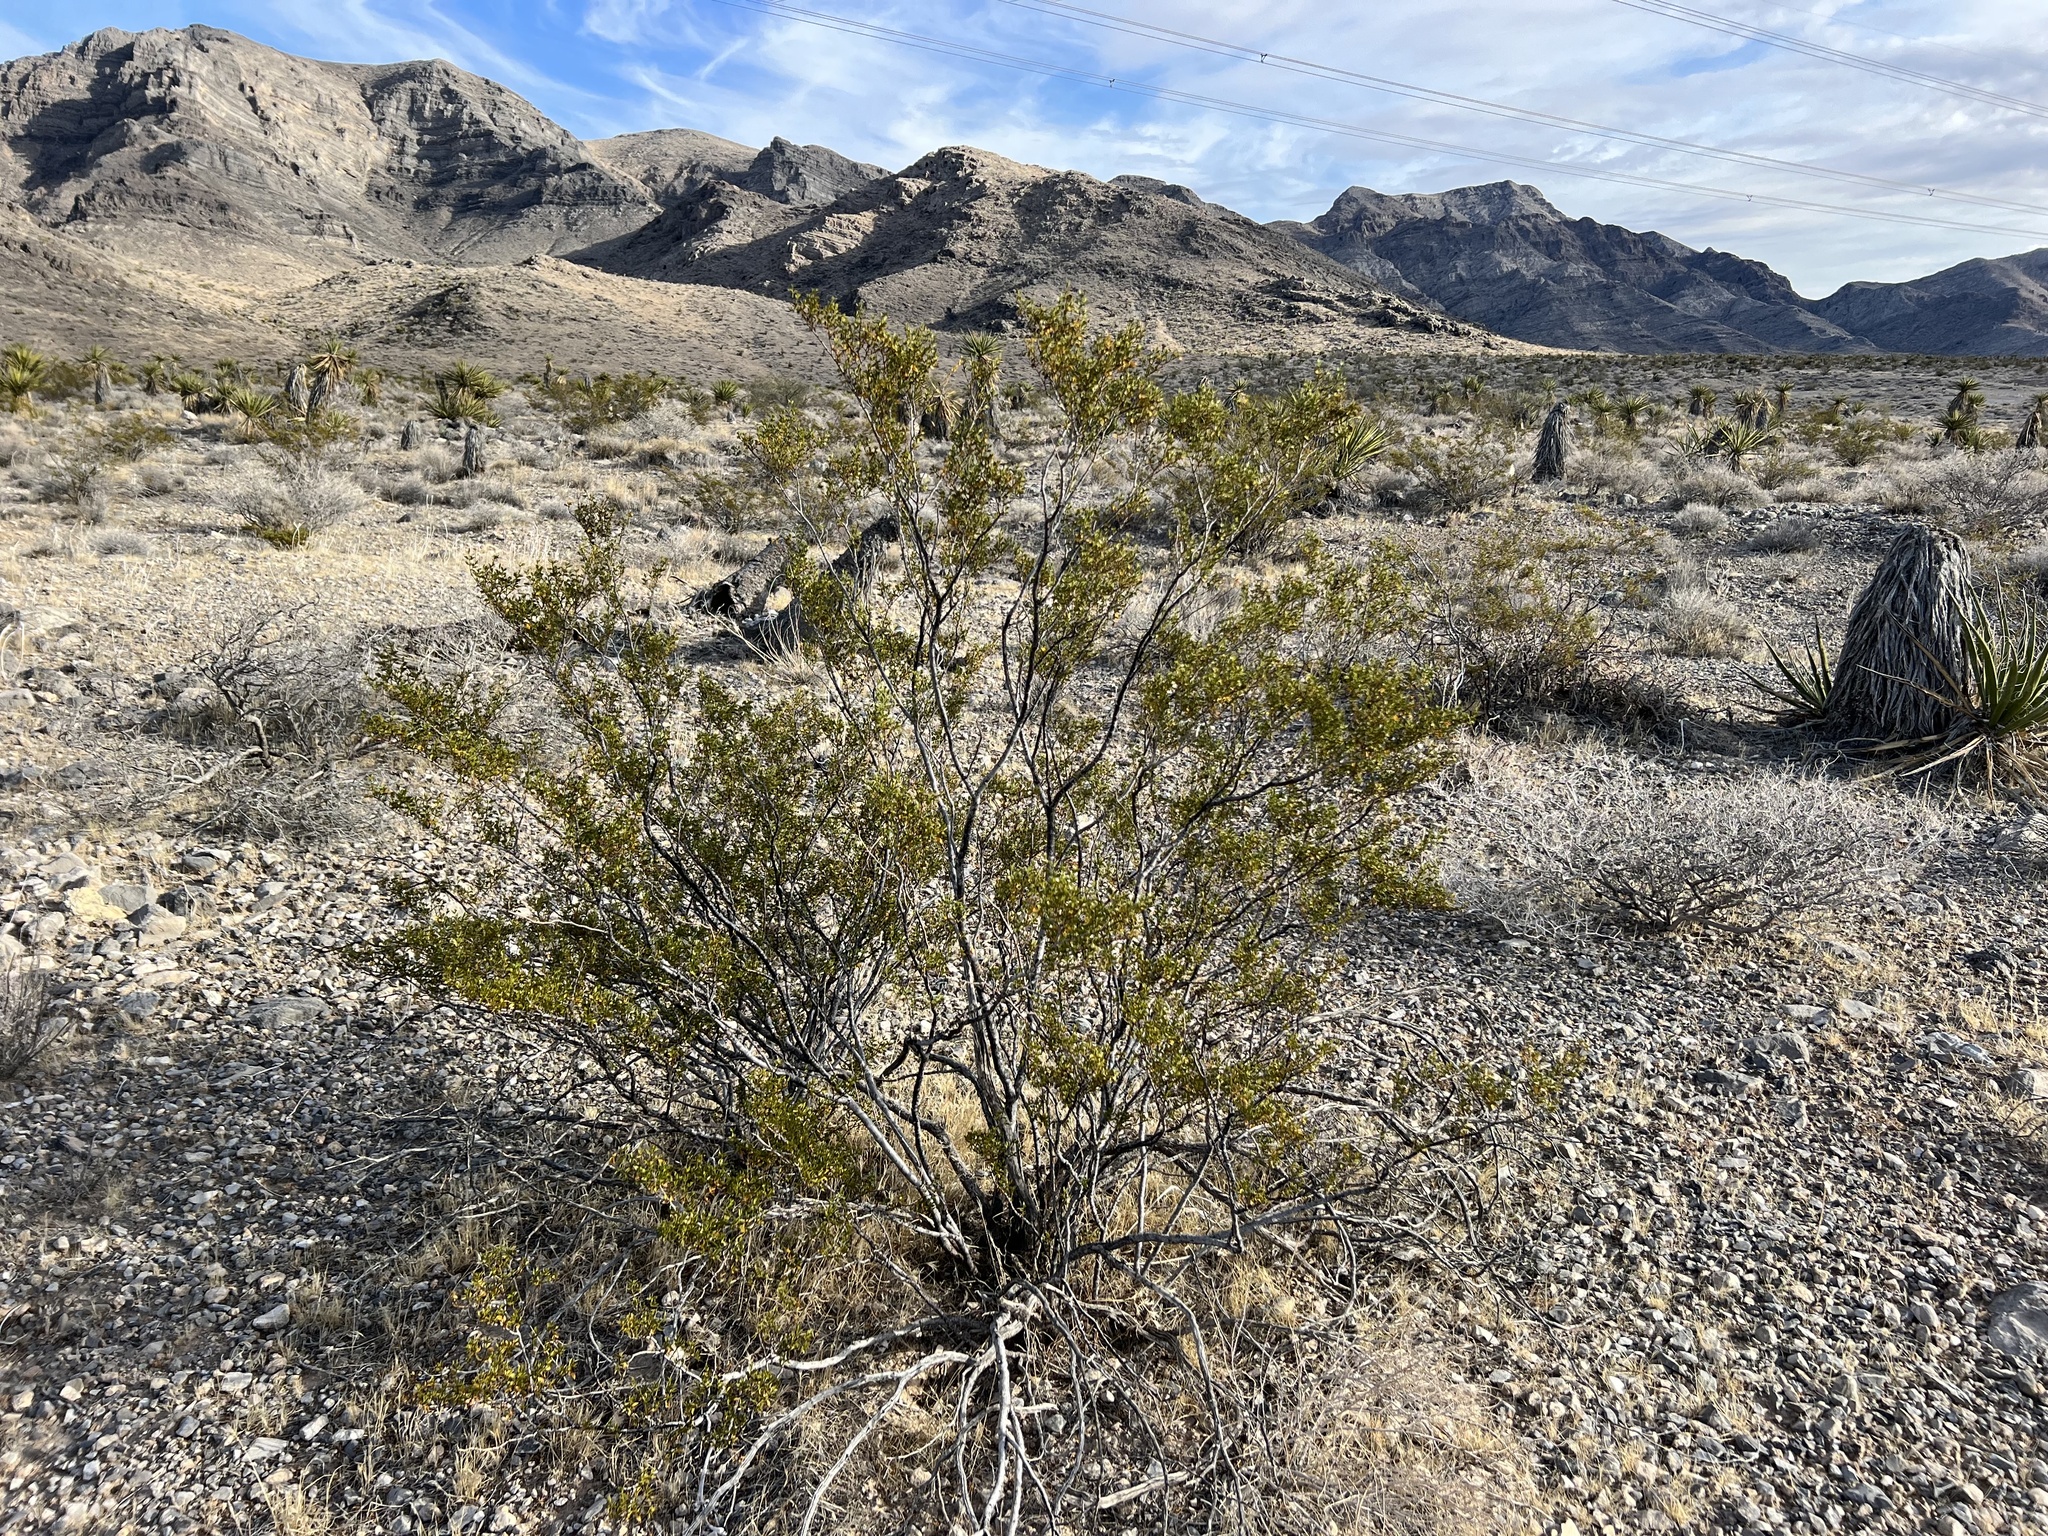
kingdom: Plantae
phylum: Tracheophyta
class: Magnoliopsida
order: Zygophyllales
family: Zygophyllaceae
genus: Larrea
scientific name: Larrea tridentata
